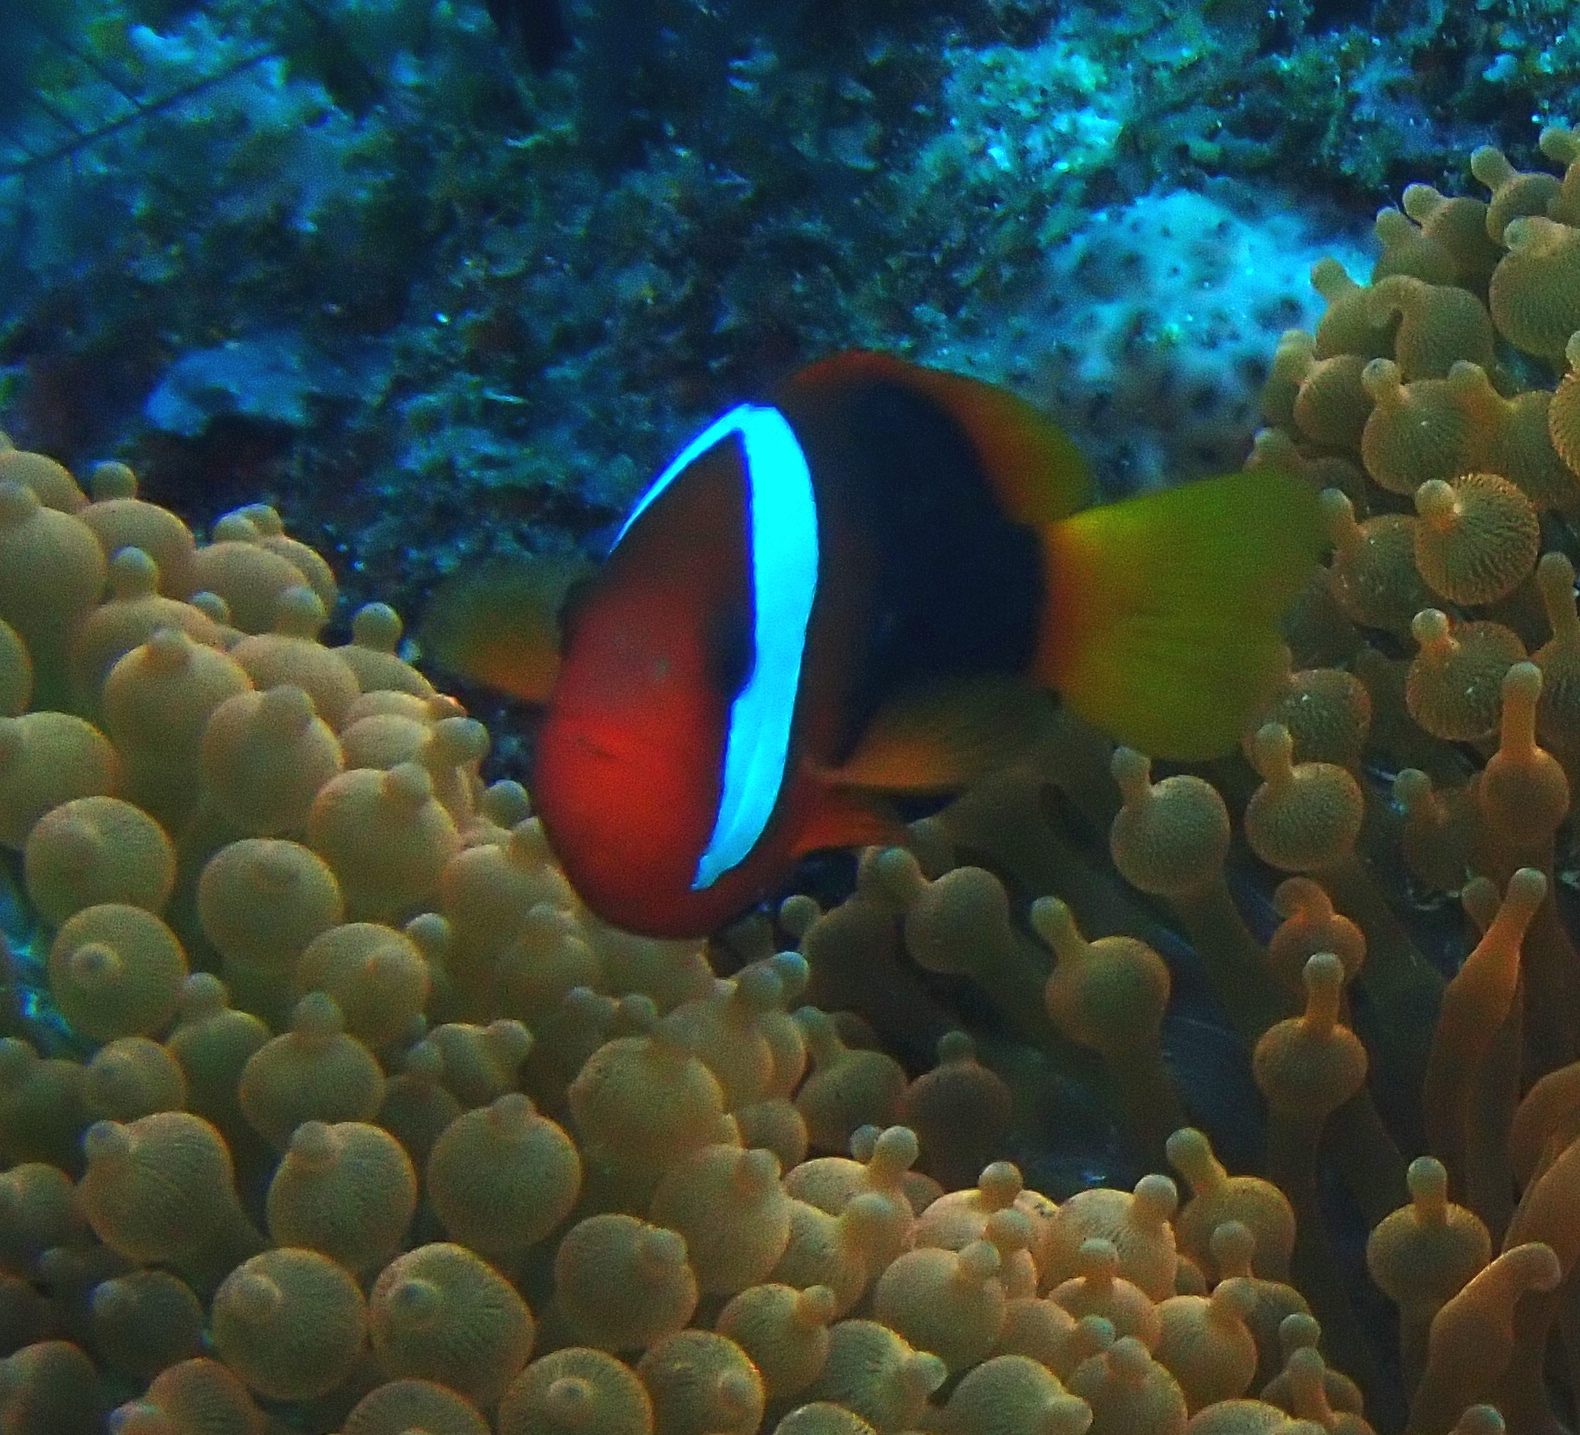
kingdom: Animalia
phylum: Chordata
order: Perciformes
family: Pomacentridae
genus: Amphiprion
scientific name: Amphiprion melanopus
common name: Black anemonefish
